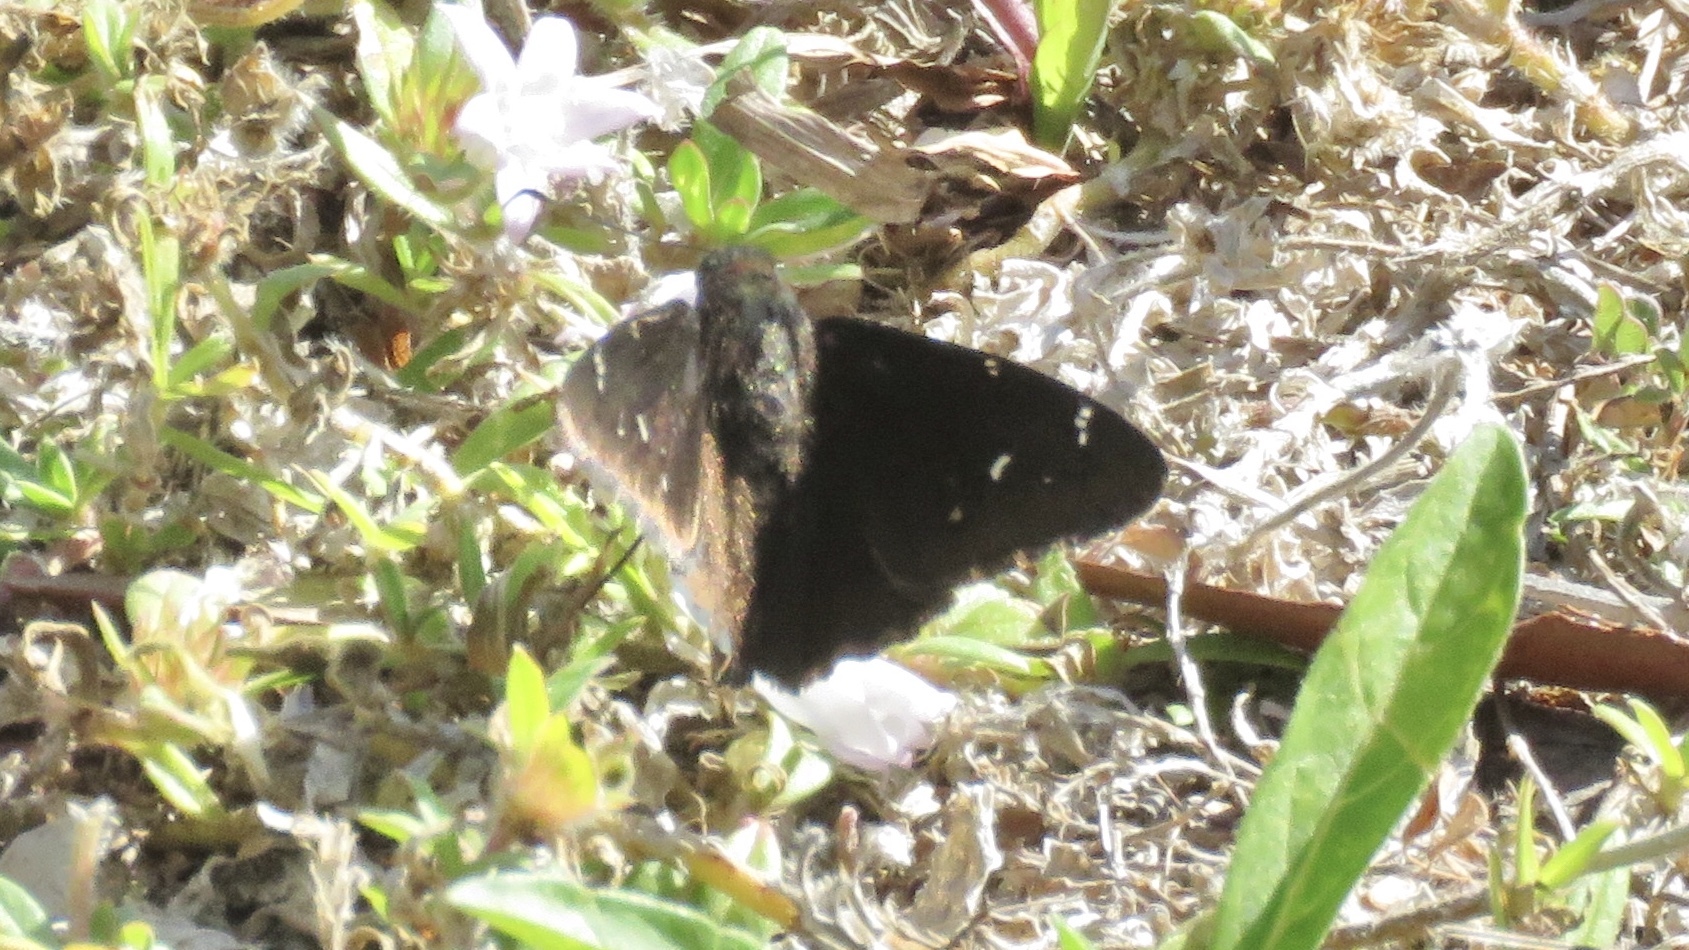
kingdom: Animalia
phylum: Arthropoda
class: Insecta
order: Lepidoptera
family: Hesperiidae
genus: Thorybes
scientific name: Thorybes pylades
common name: Northern cloudywing
